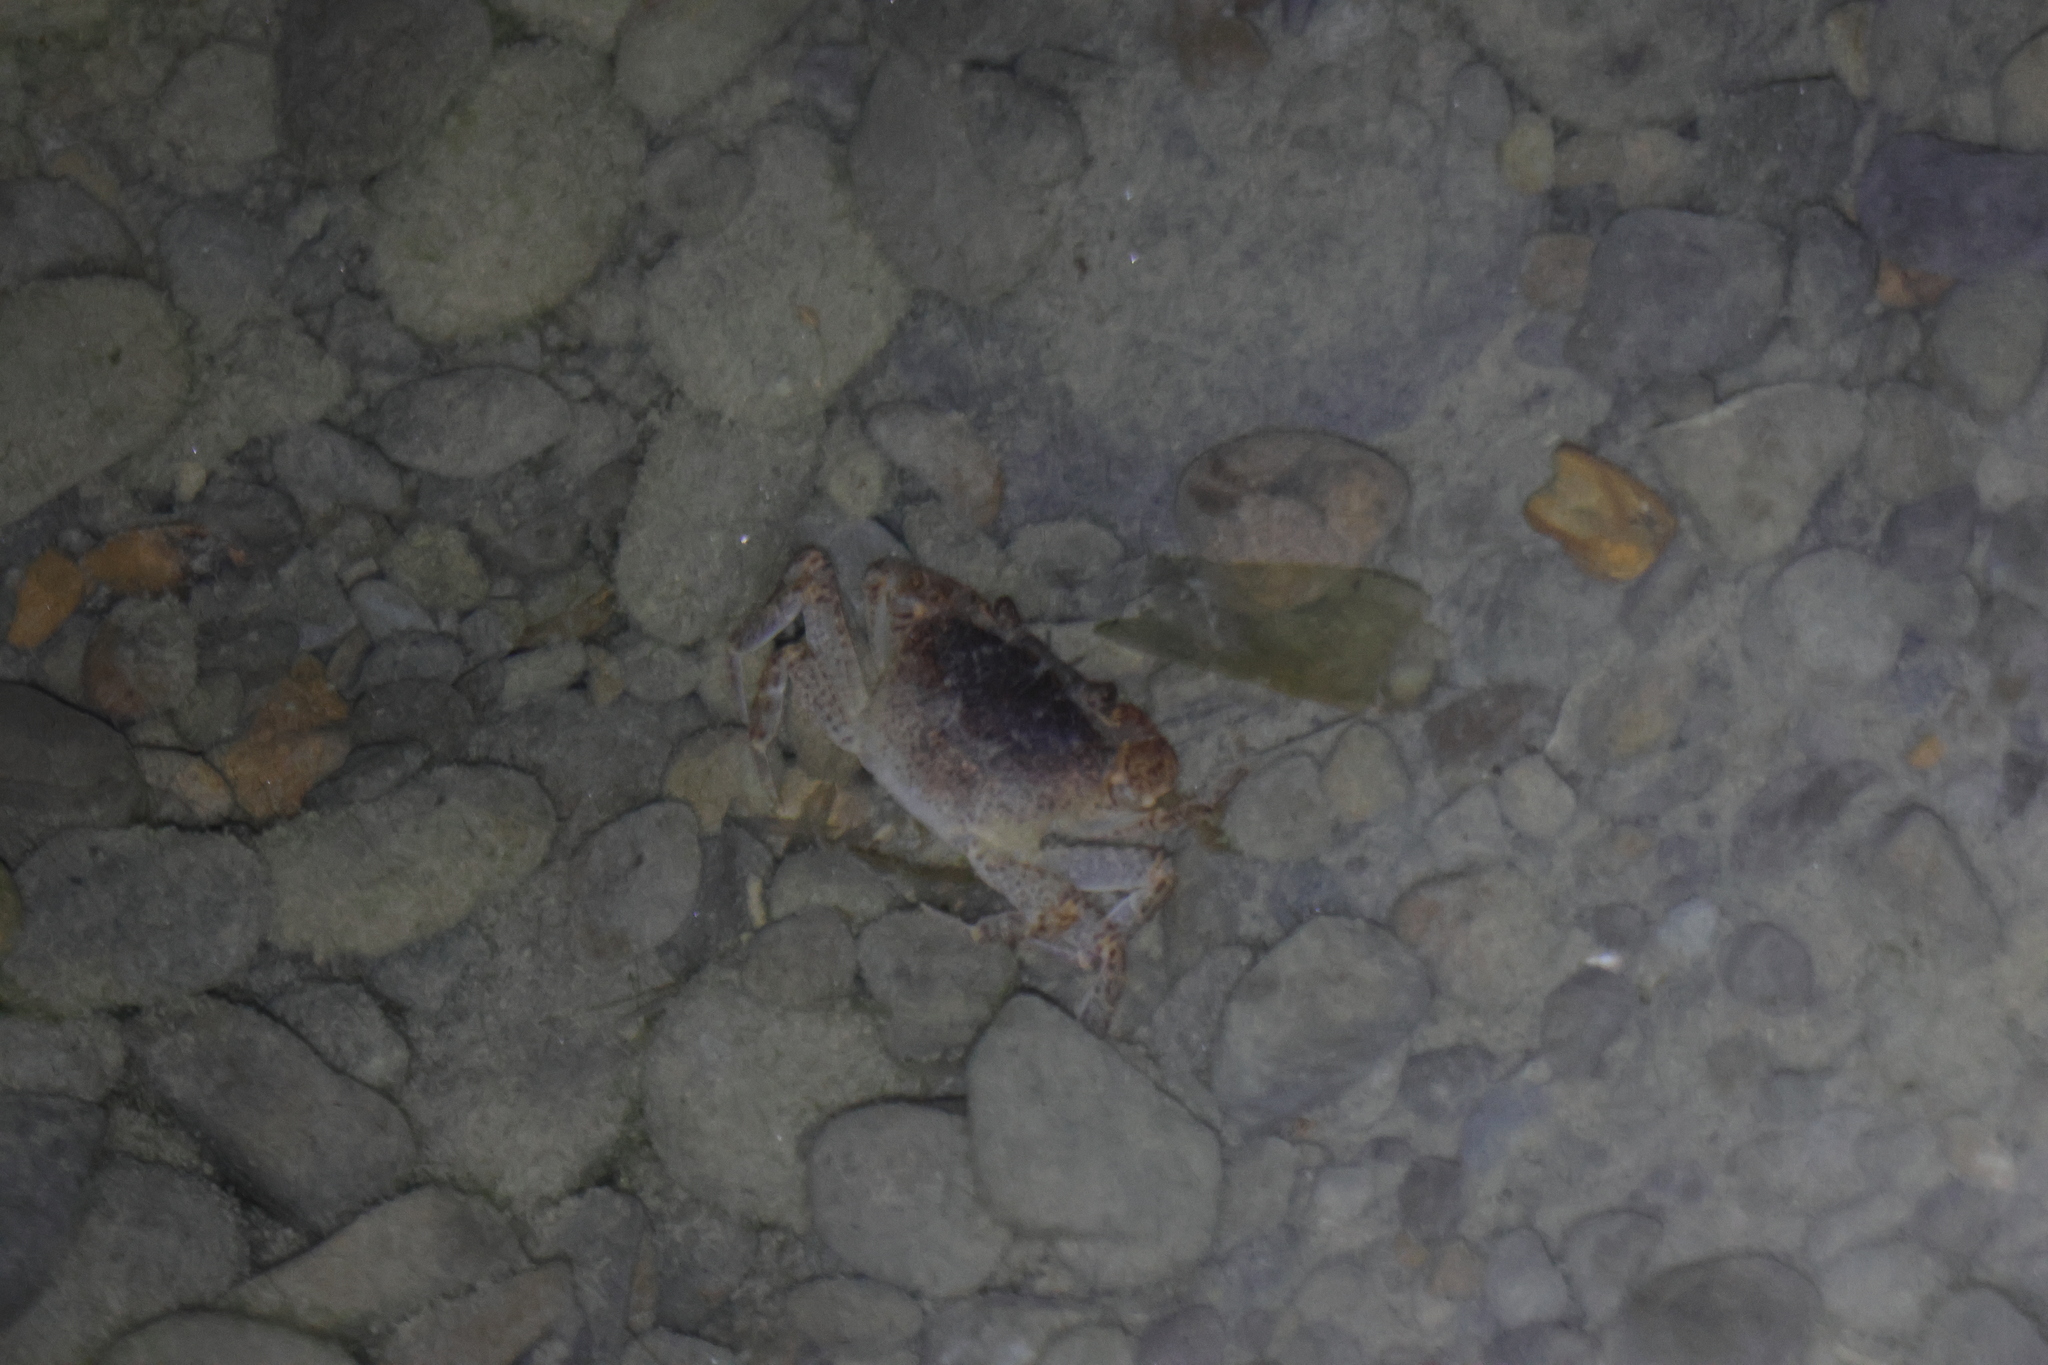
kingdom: Animalia
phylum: Arthropoda
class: Malacostraca
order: Decapoda
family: Potamidae
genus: Geothelphusa
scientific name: Geothelphusa tsayae
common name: She crab
